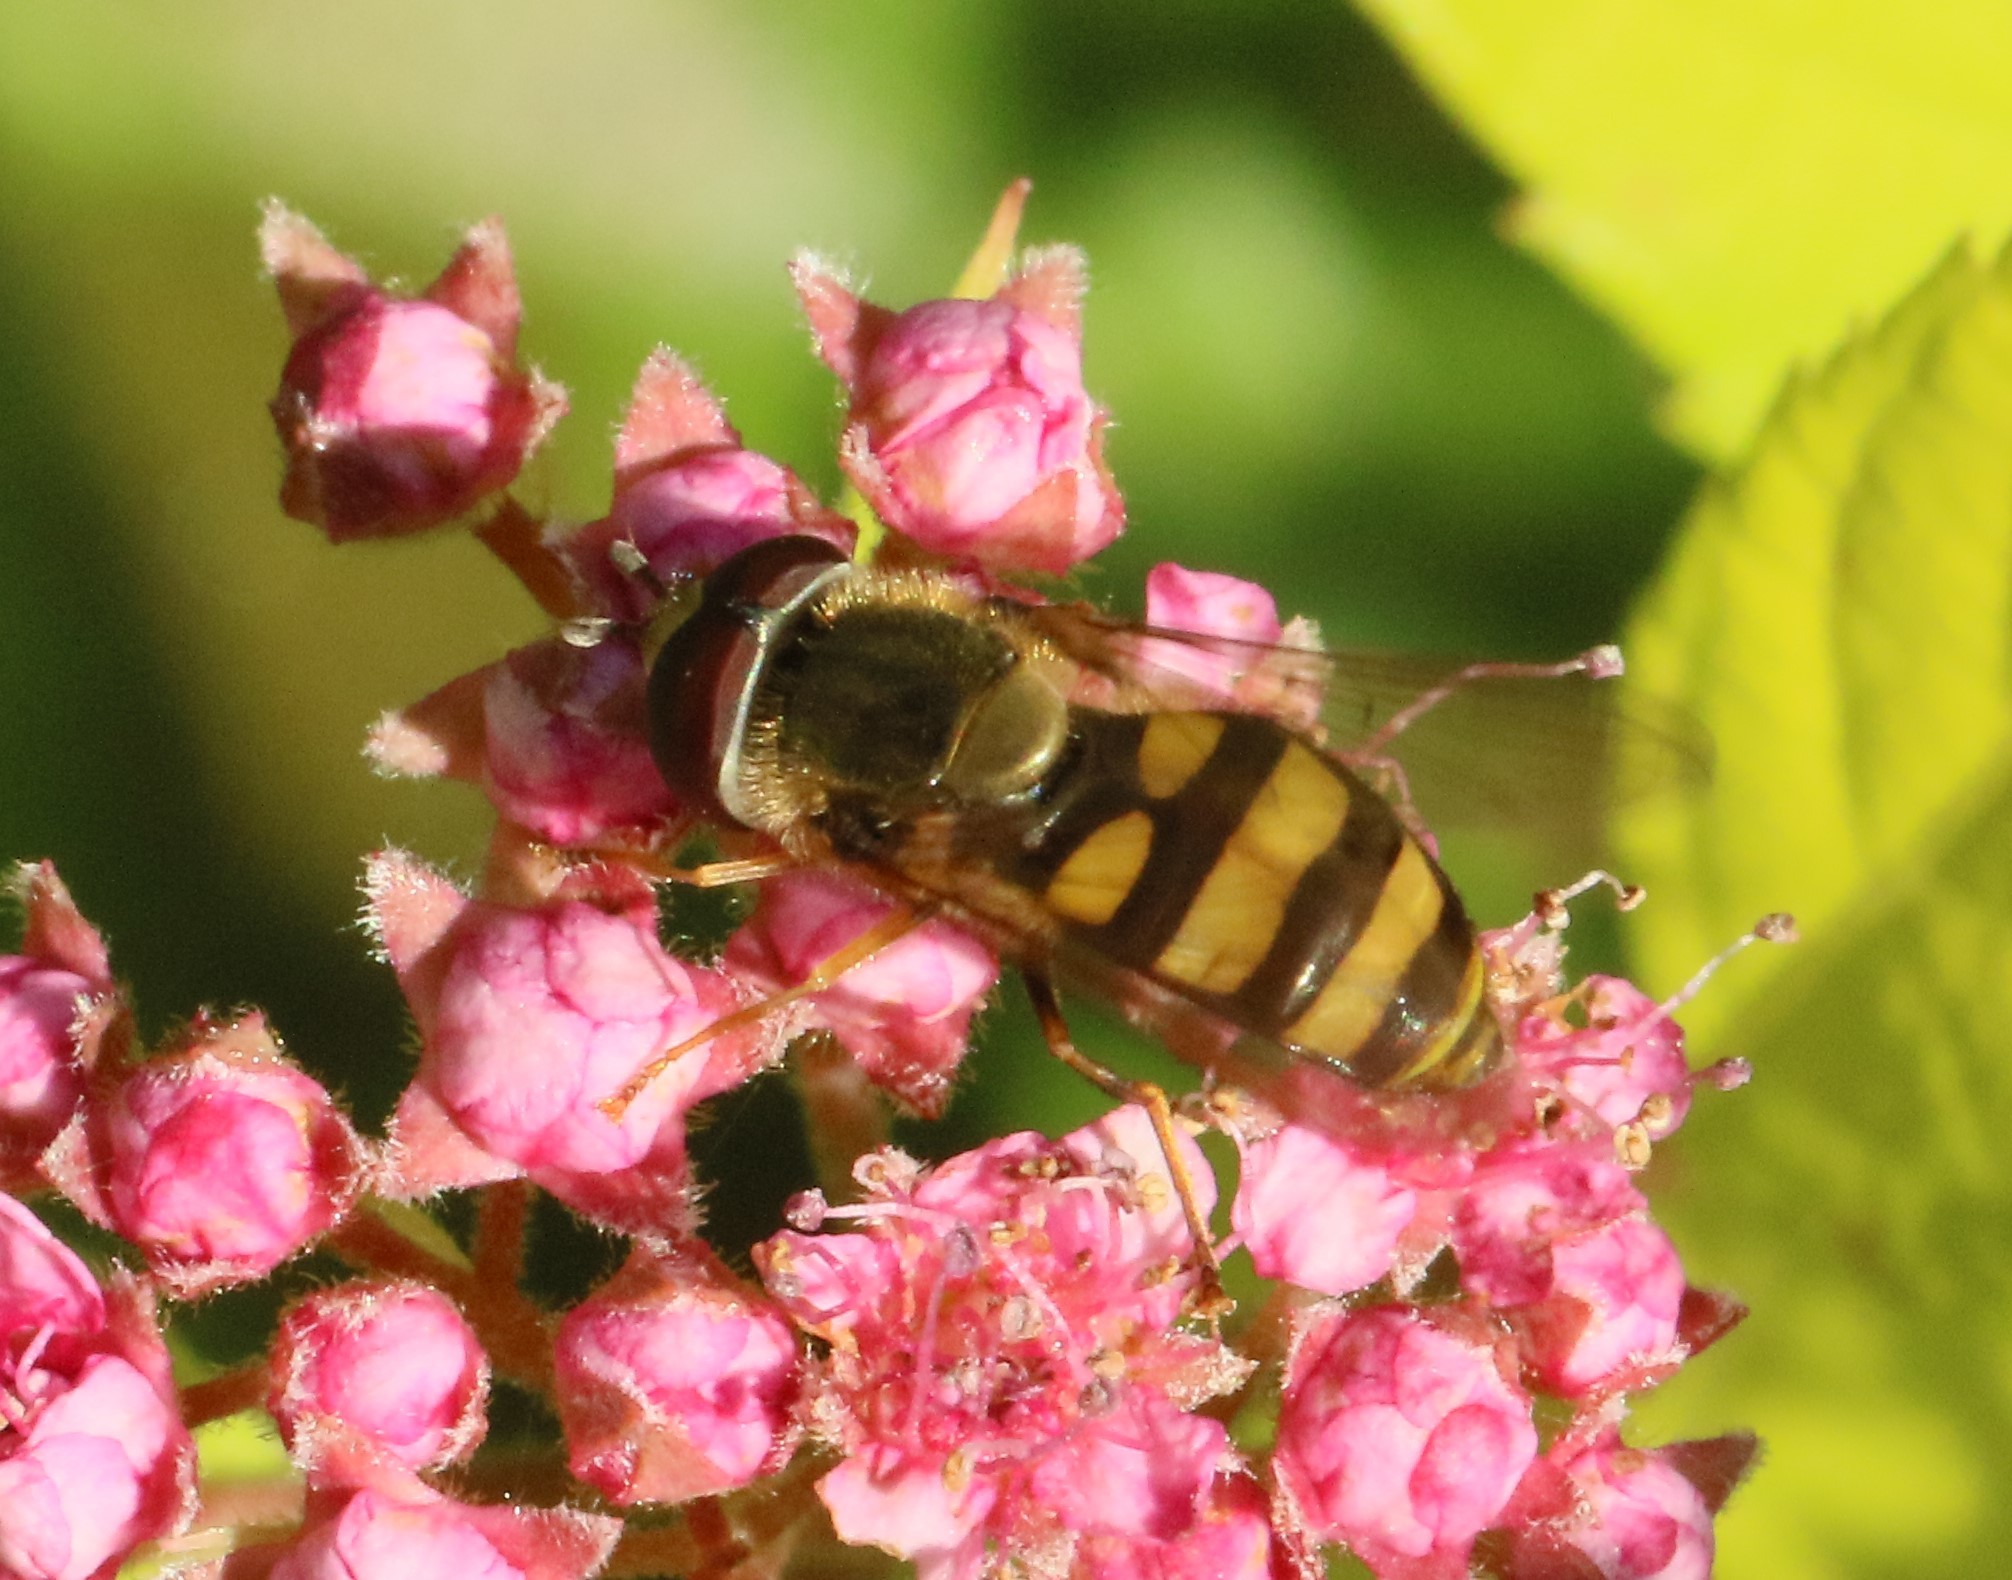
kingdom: Animalia
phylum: Arthropoda
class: Insecta
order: Diptera
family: Syrphidae
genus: Eupeodes
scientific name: Eupeodes
